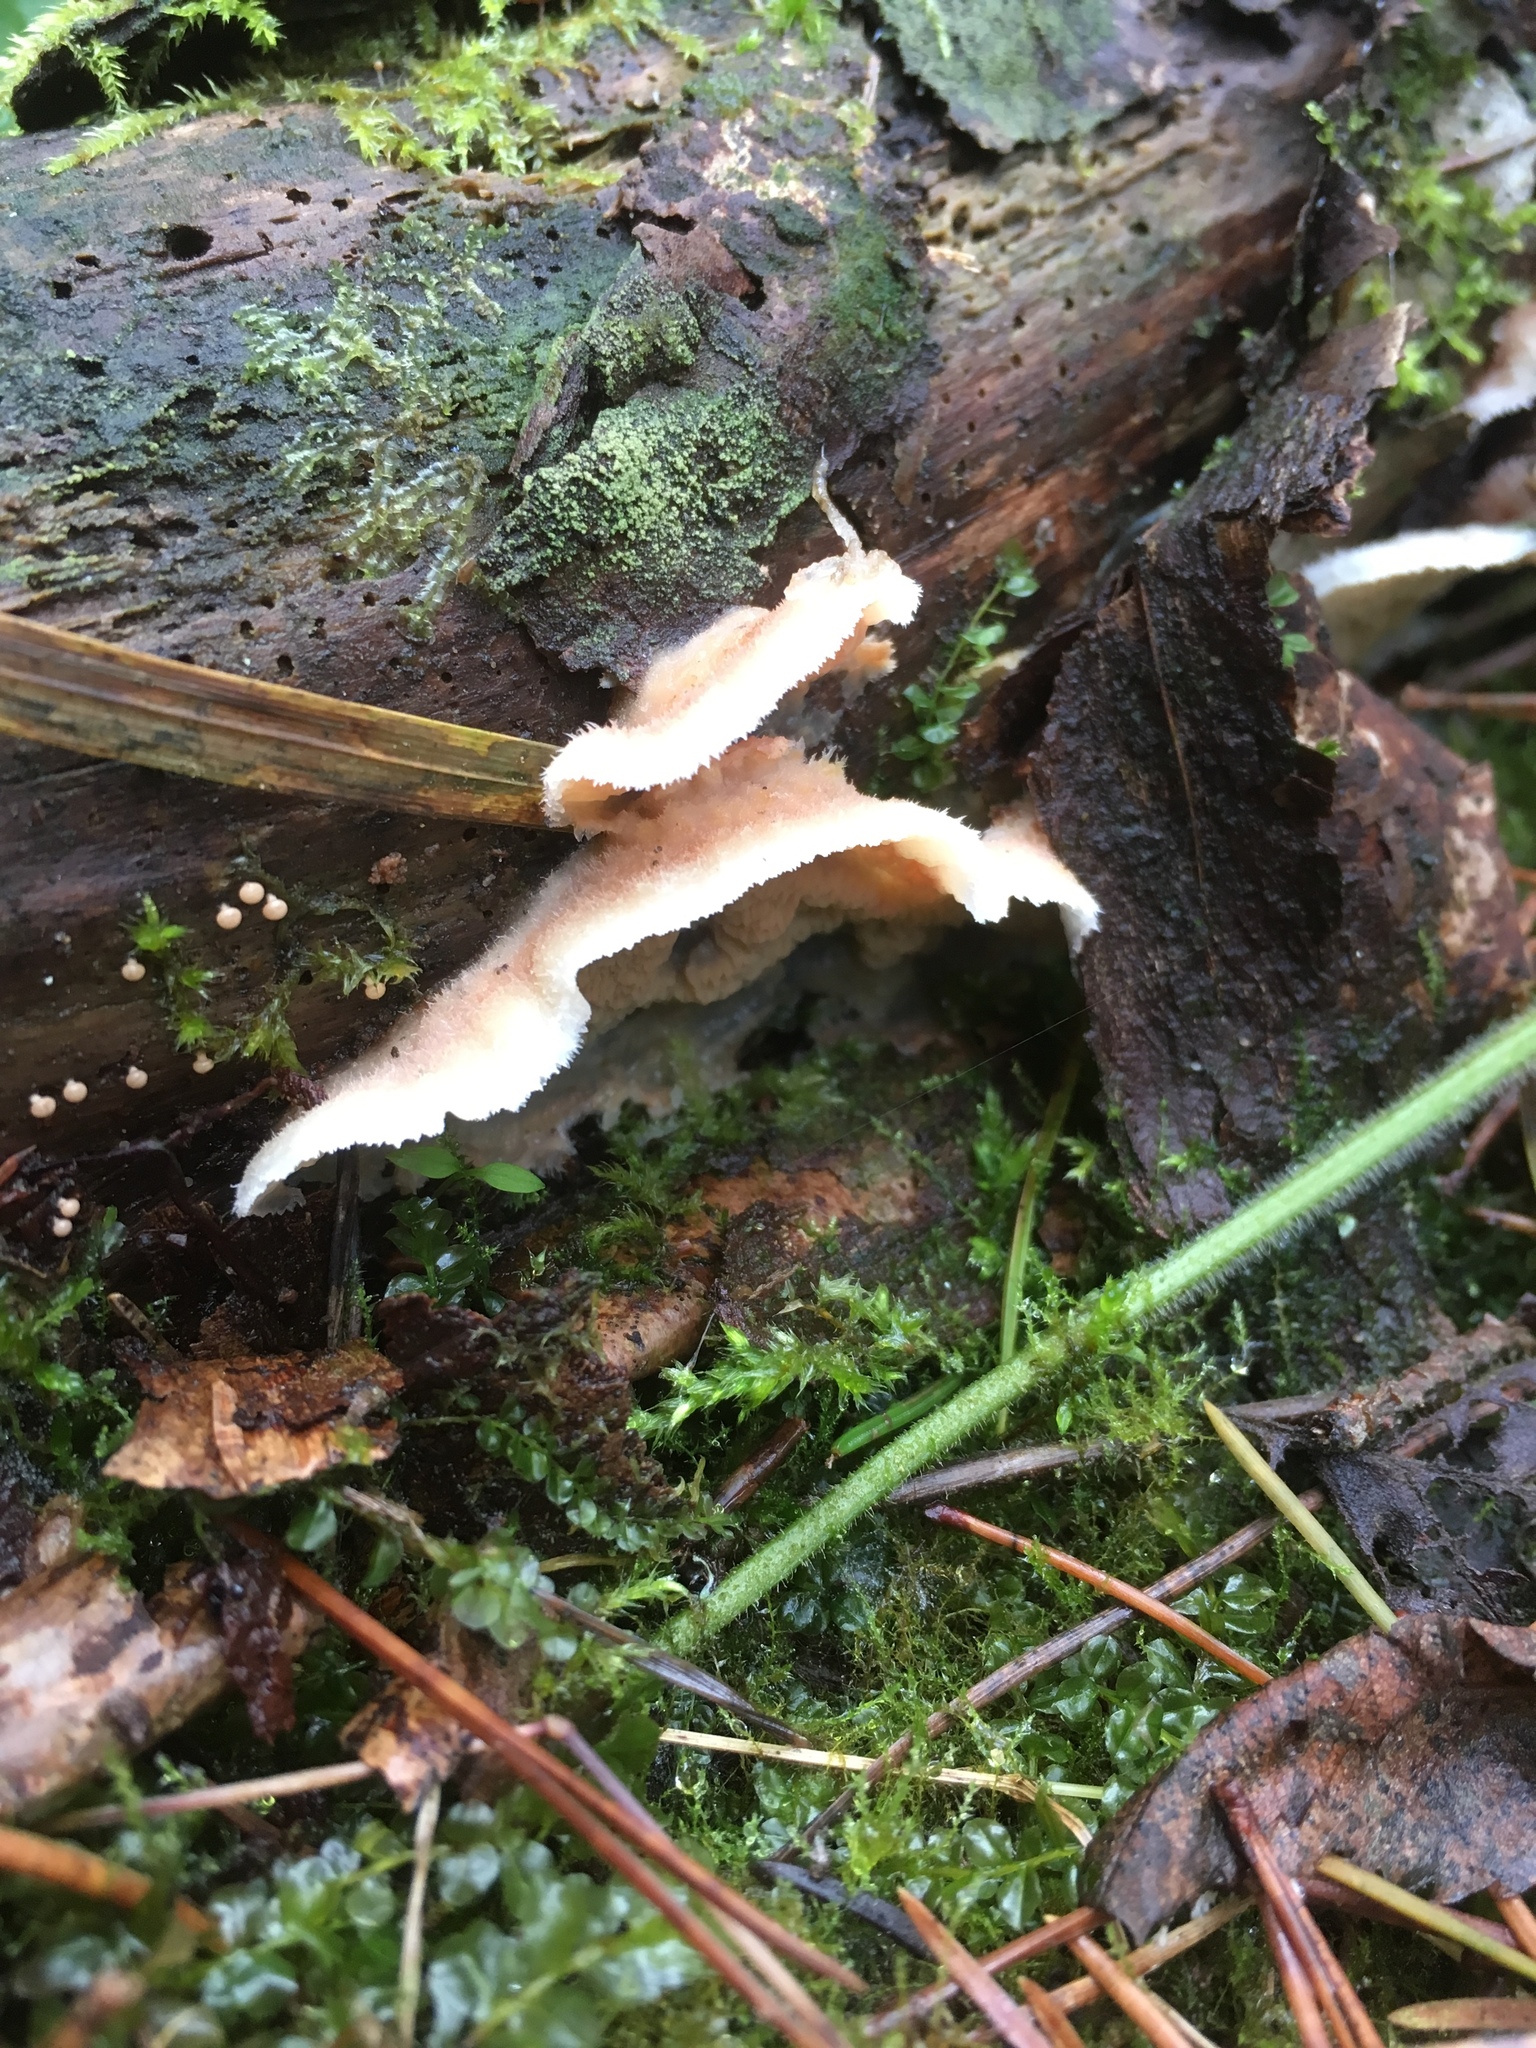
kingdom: Fungi
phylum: Basidiomycota
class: Agaricomycetes
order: Polyporales
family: Meruliaceae
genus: Phlebia
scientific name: Phlebia tremellosa
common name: Jelly rot
